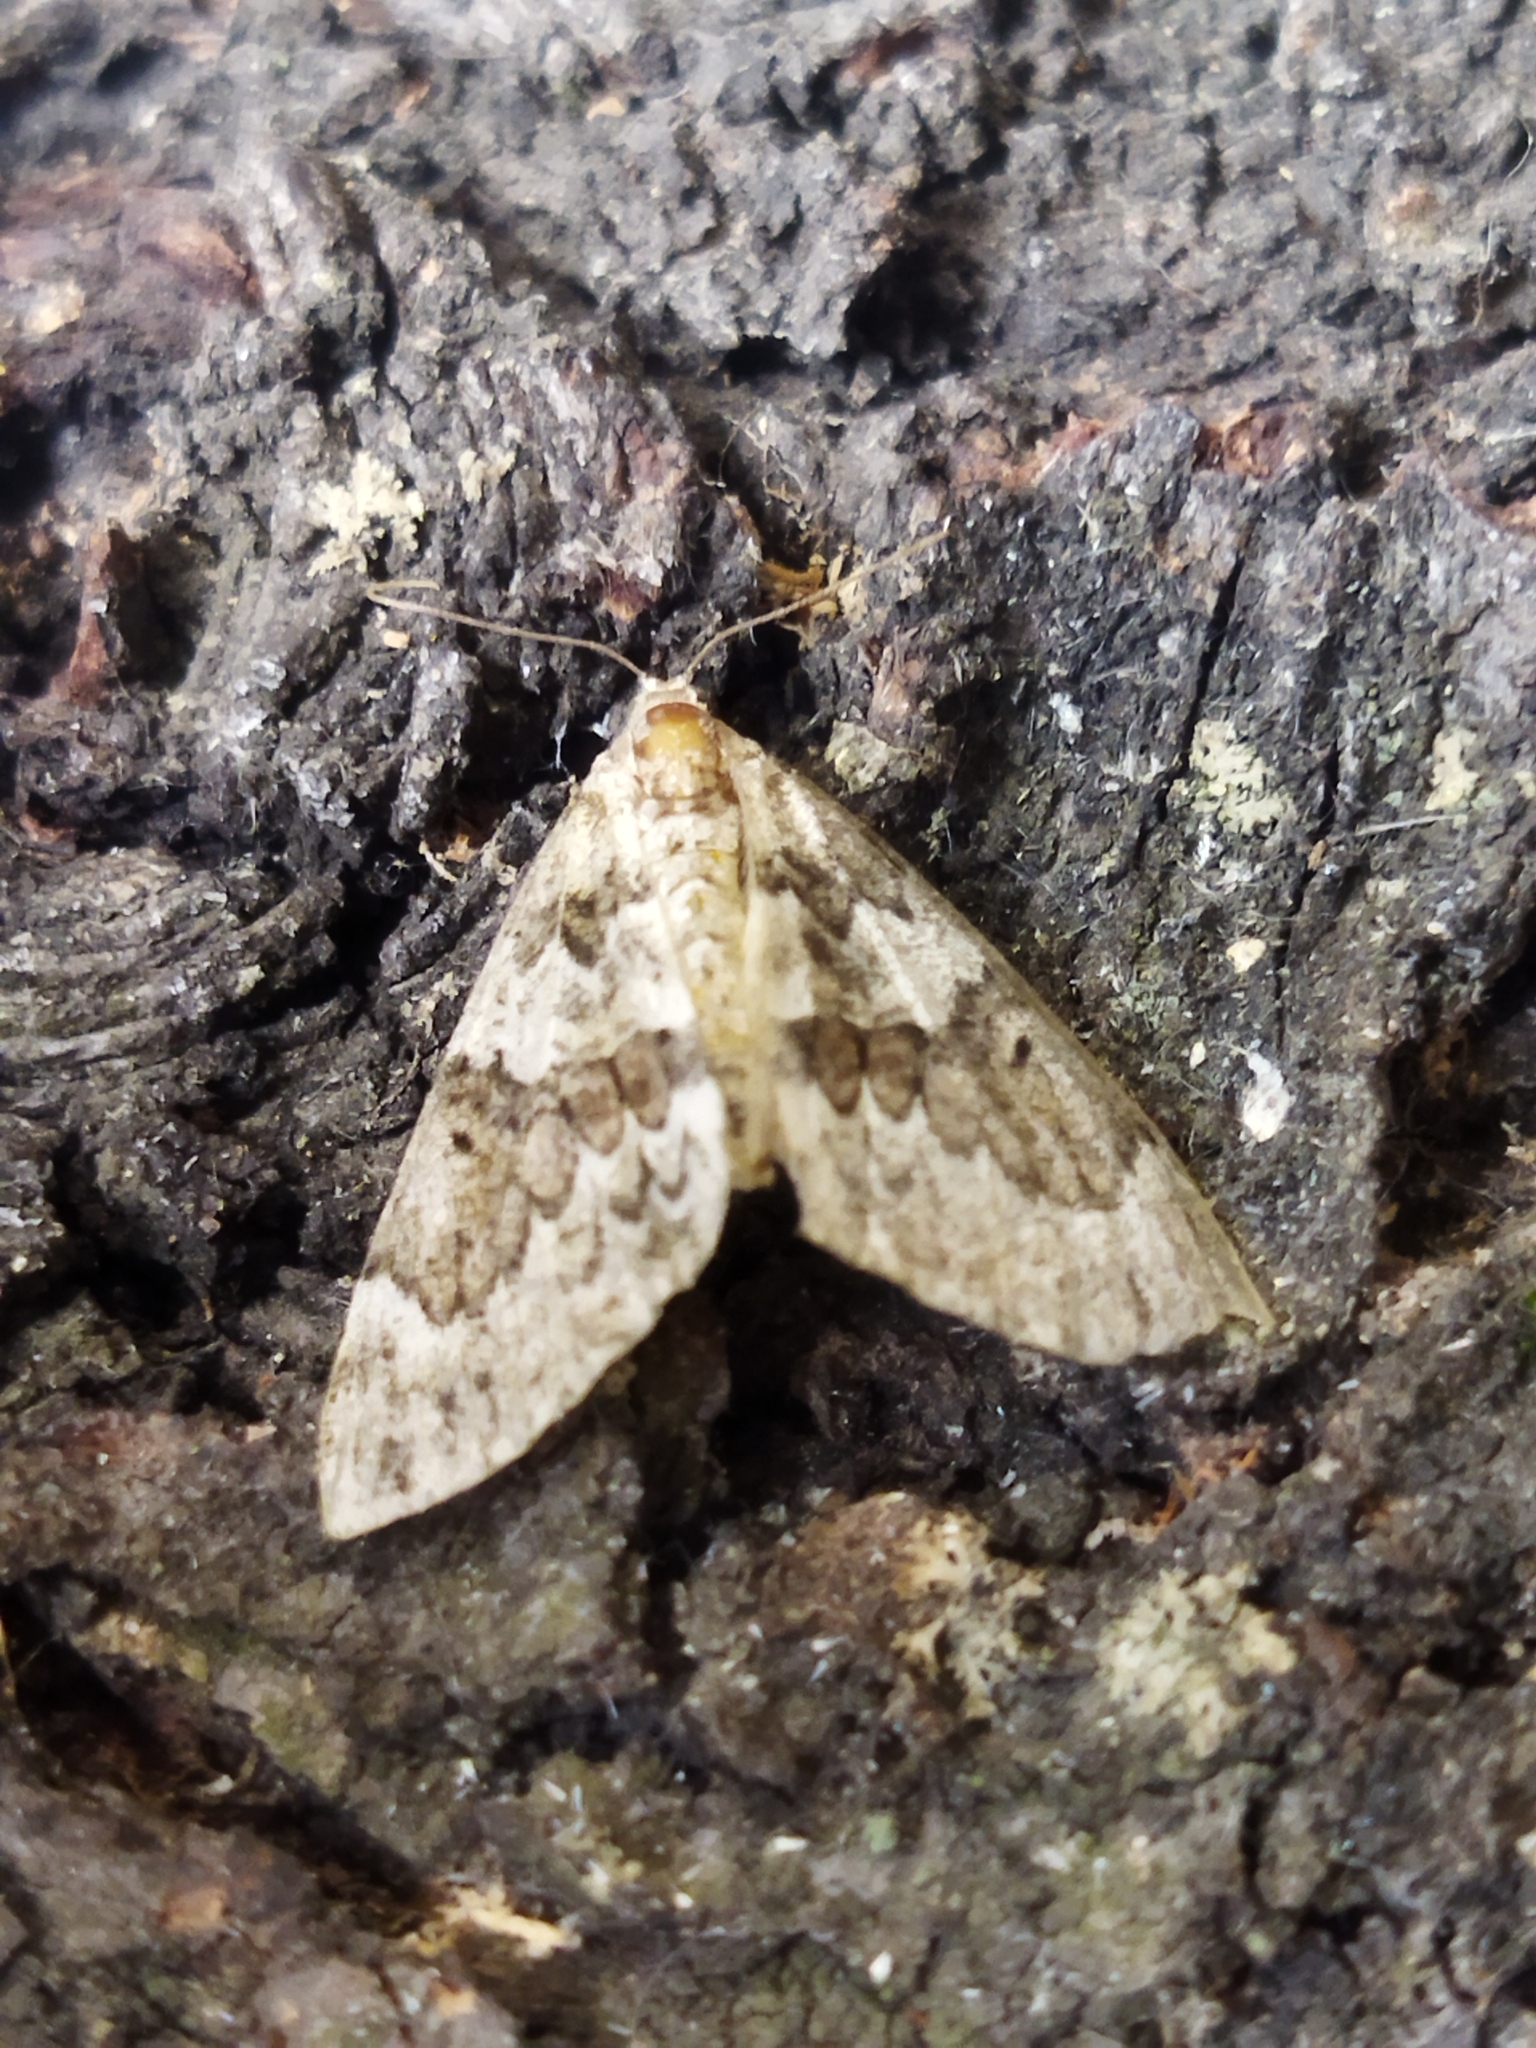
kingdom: Animalia
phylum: Arthropoda
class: Insecta
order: Lepidoptera
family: Geometridae
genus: Thera
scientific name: Thera
